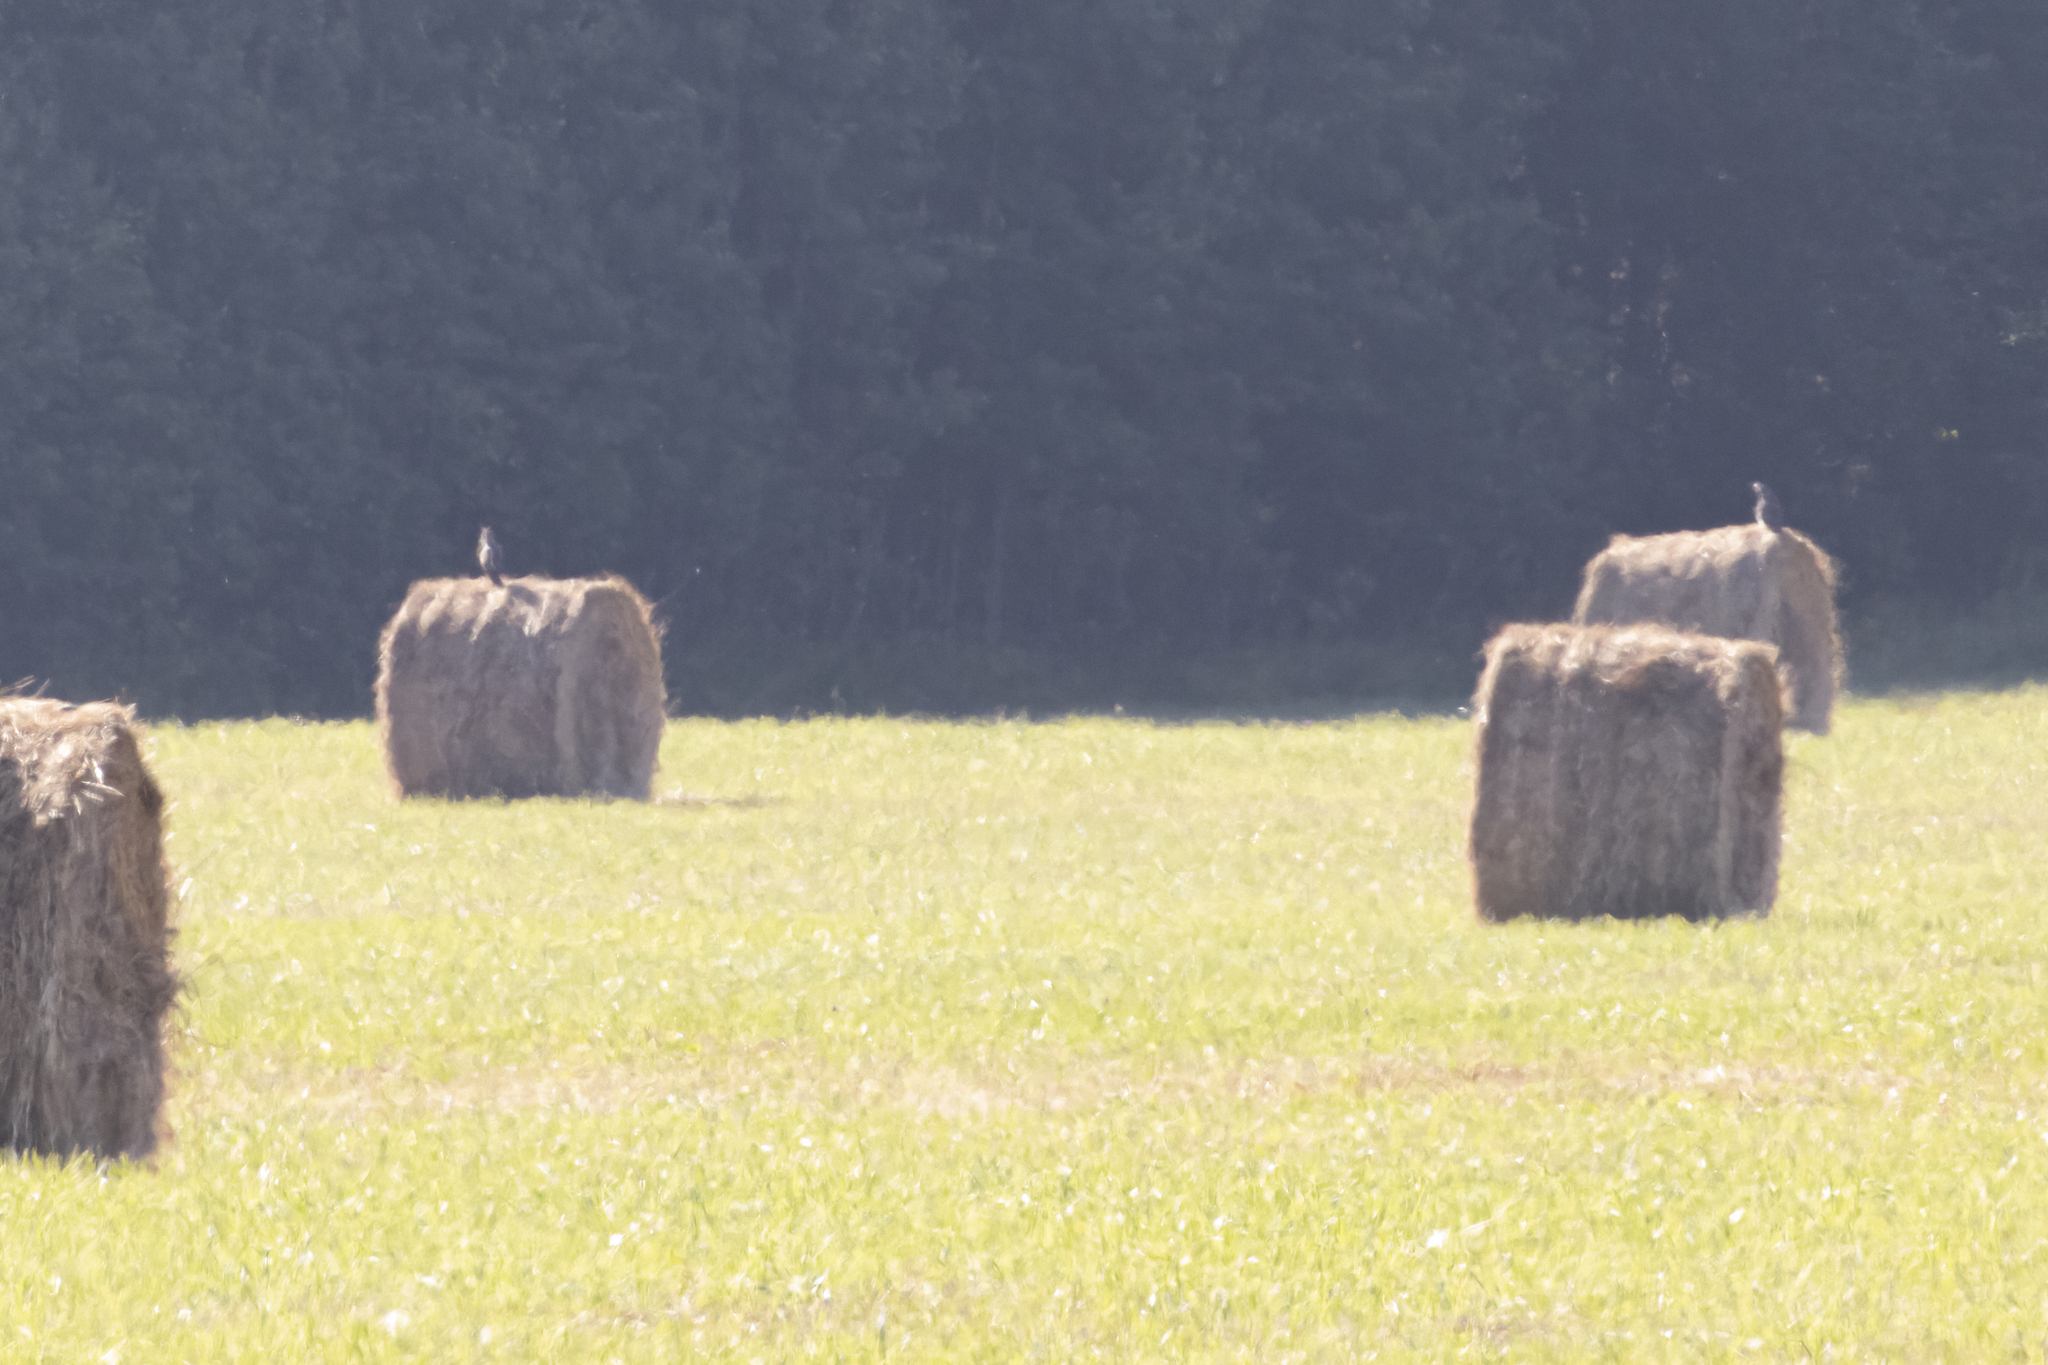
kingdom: Animalia
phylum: Chordata
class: Aves
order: Accipitriformes
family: Accipitridae
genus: Buteo
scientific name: Buteo buteo
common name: Common buzzard
